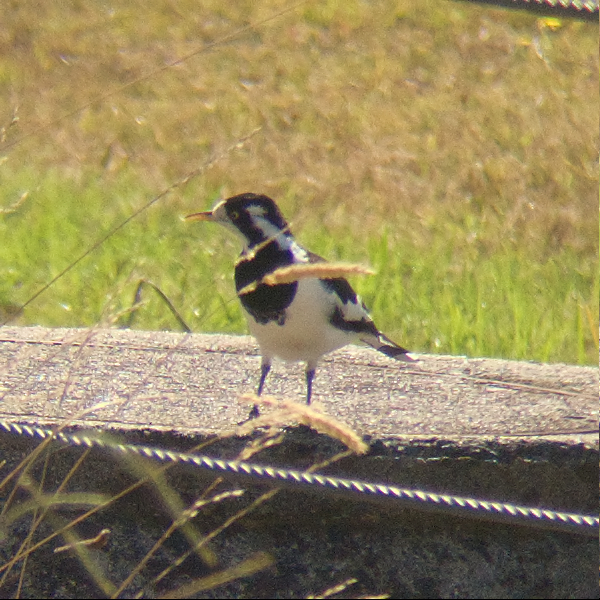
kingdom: Animalia
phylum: Chordata
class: Aves
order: Passeriformes
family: Monarchidae
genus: Grallina
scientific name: Grallina cyanoleuca
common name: Magpie-lark
